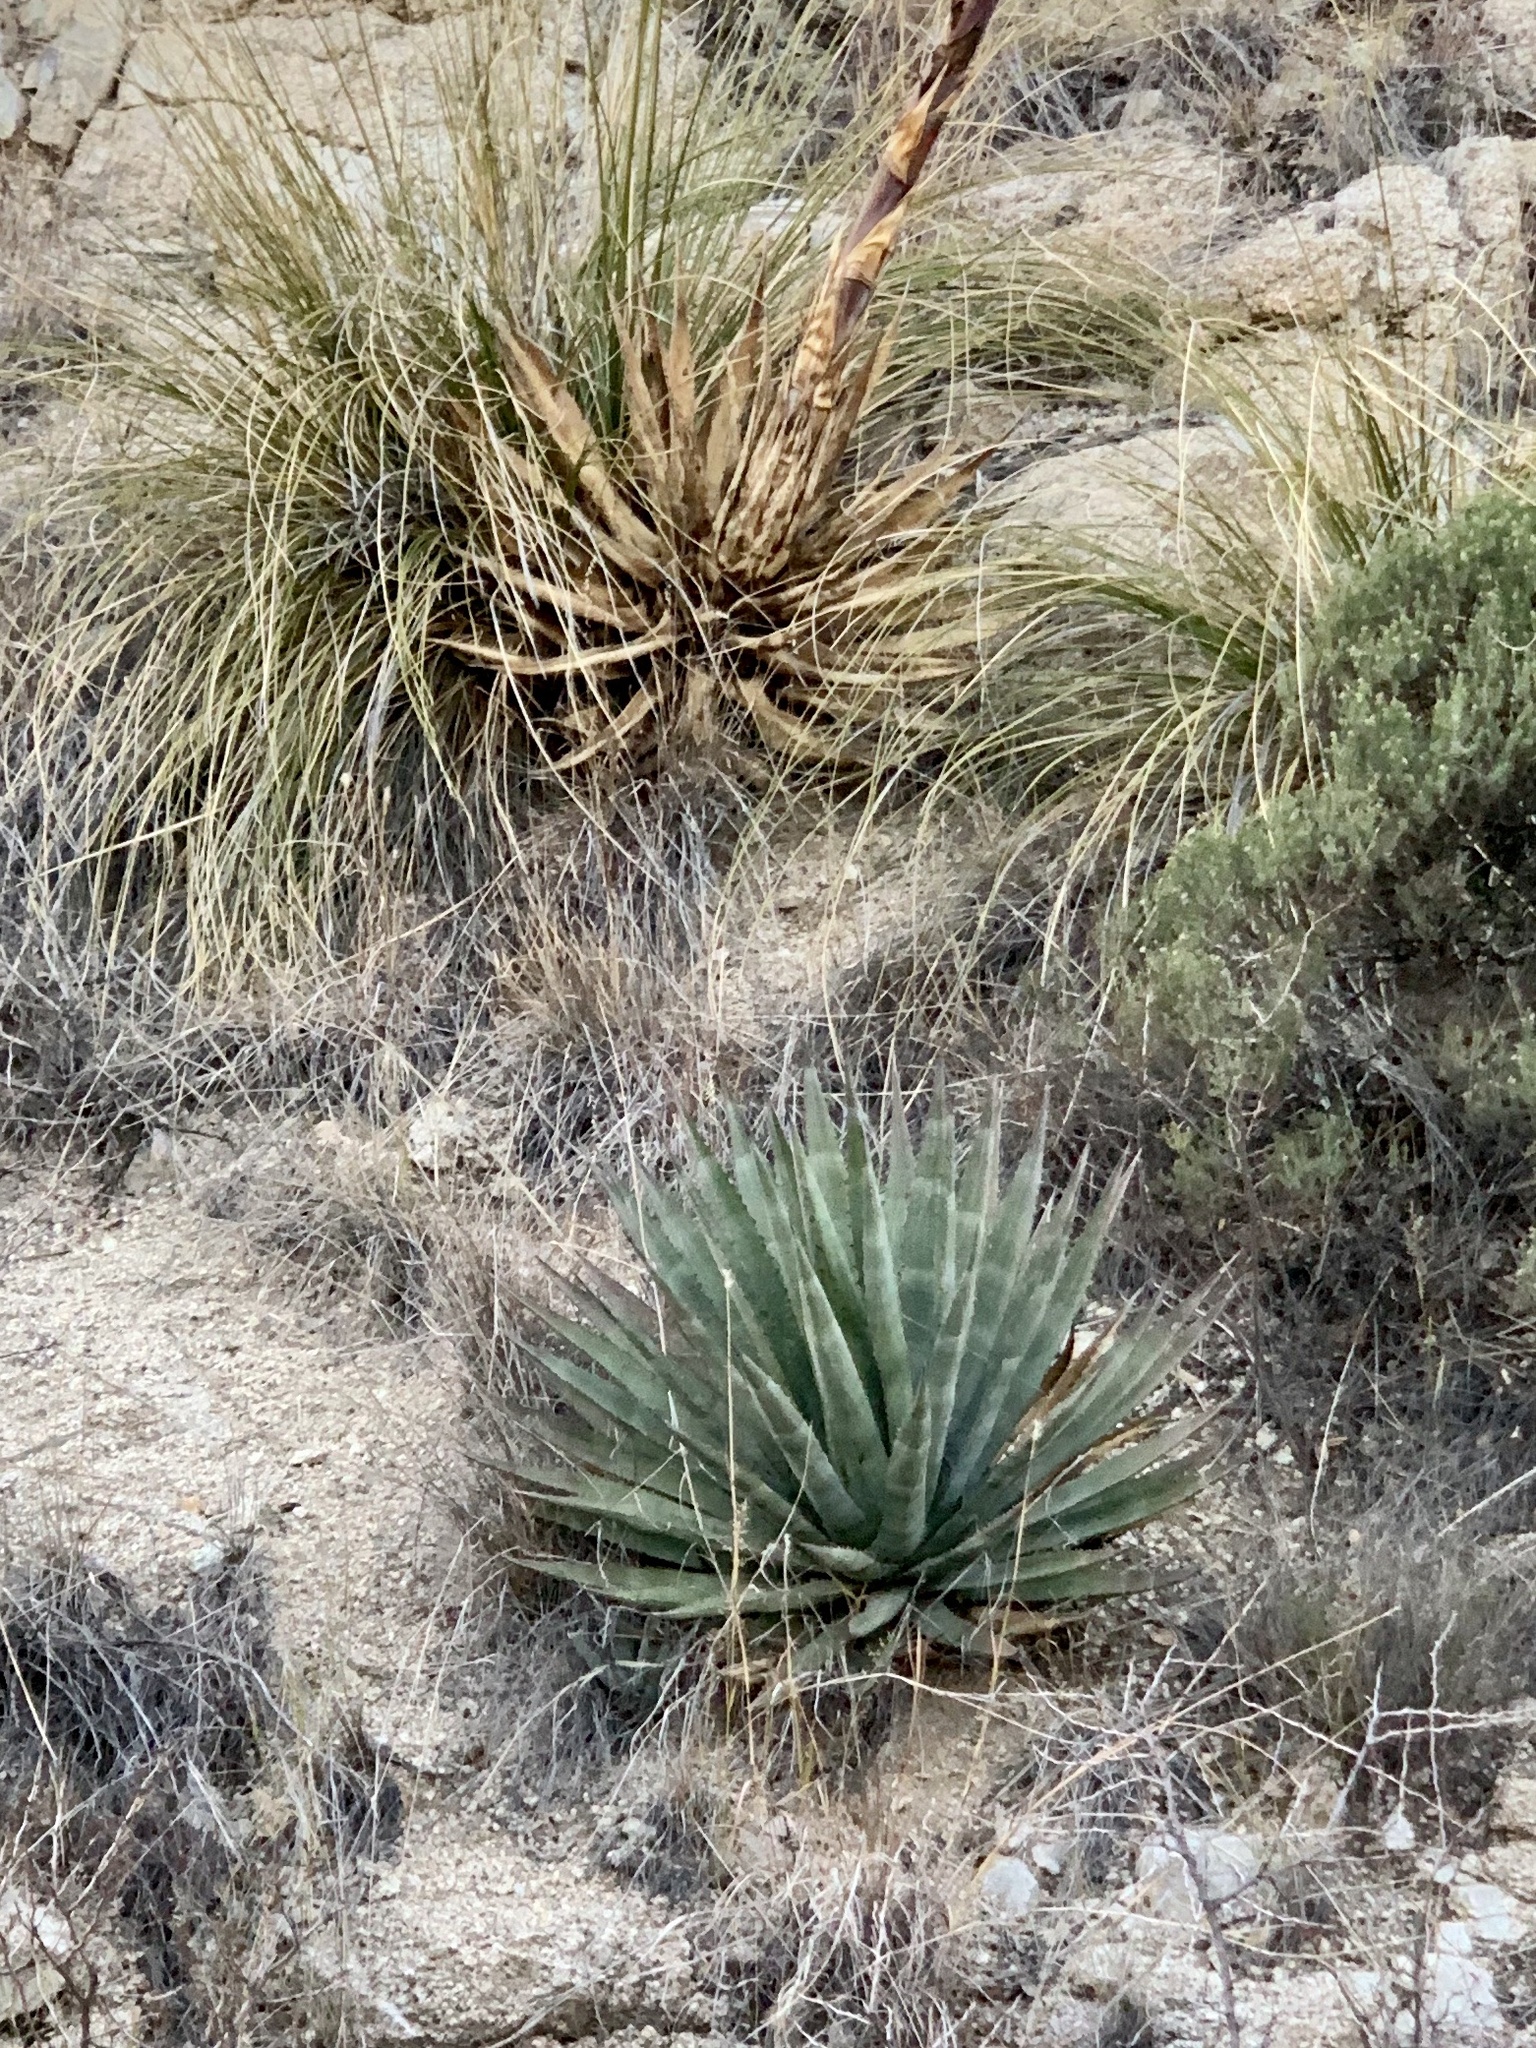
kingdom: Plantae
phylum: Tracheophyta
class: Liliopsida
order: Asparagales
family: Asparagaceae
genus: Agave
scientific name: Agave palmeri
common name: Palmer agave
